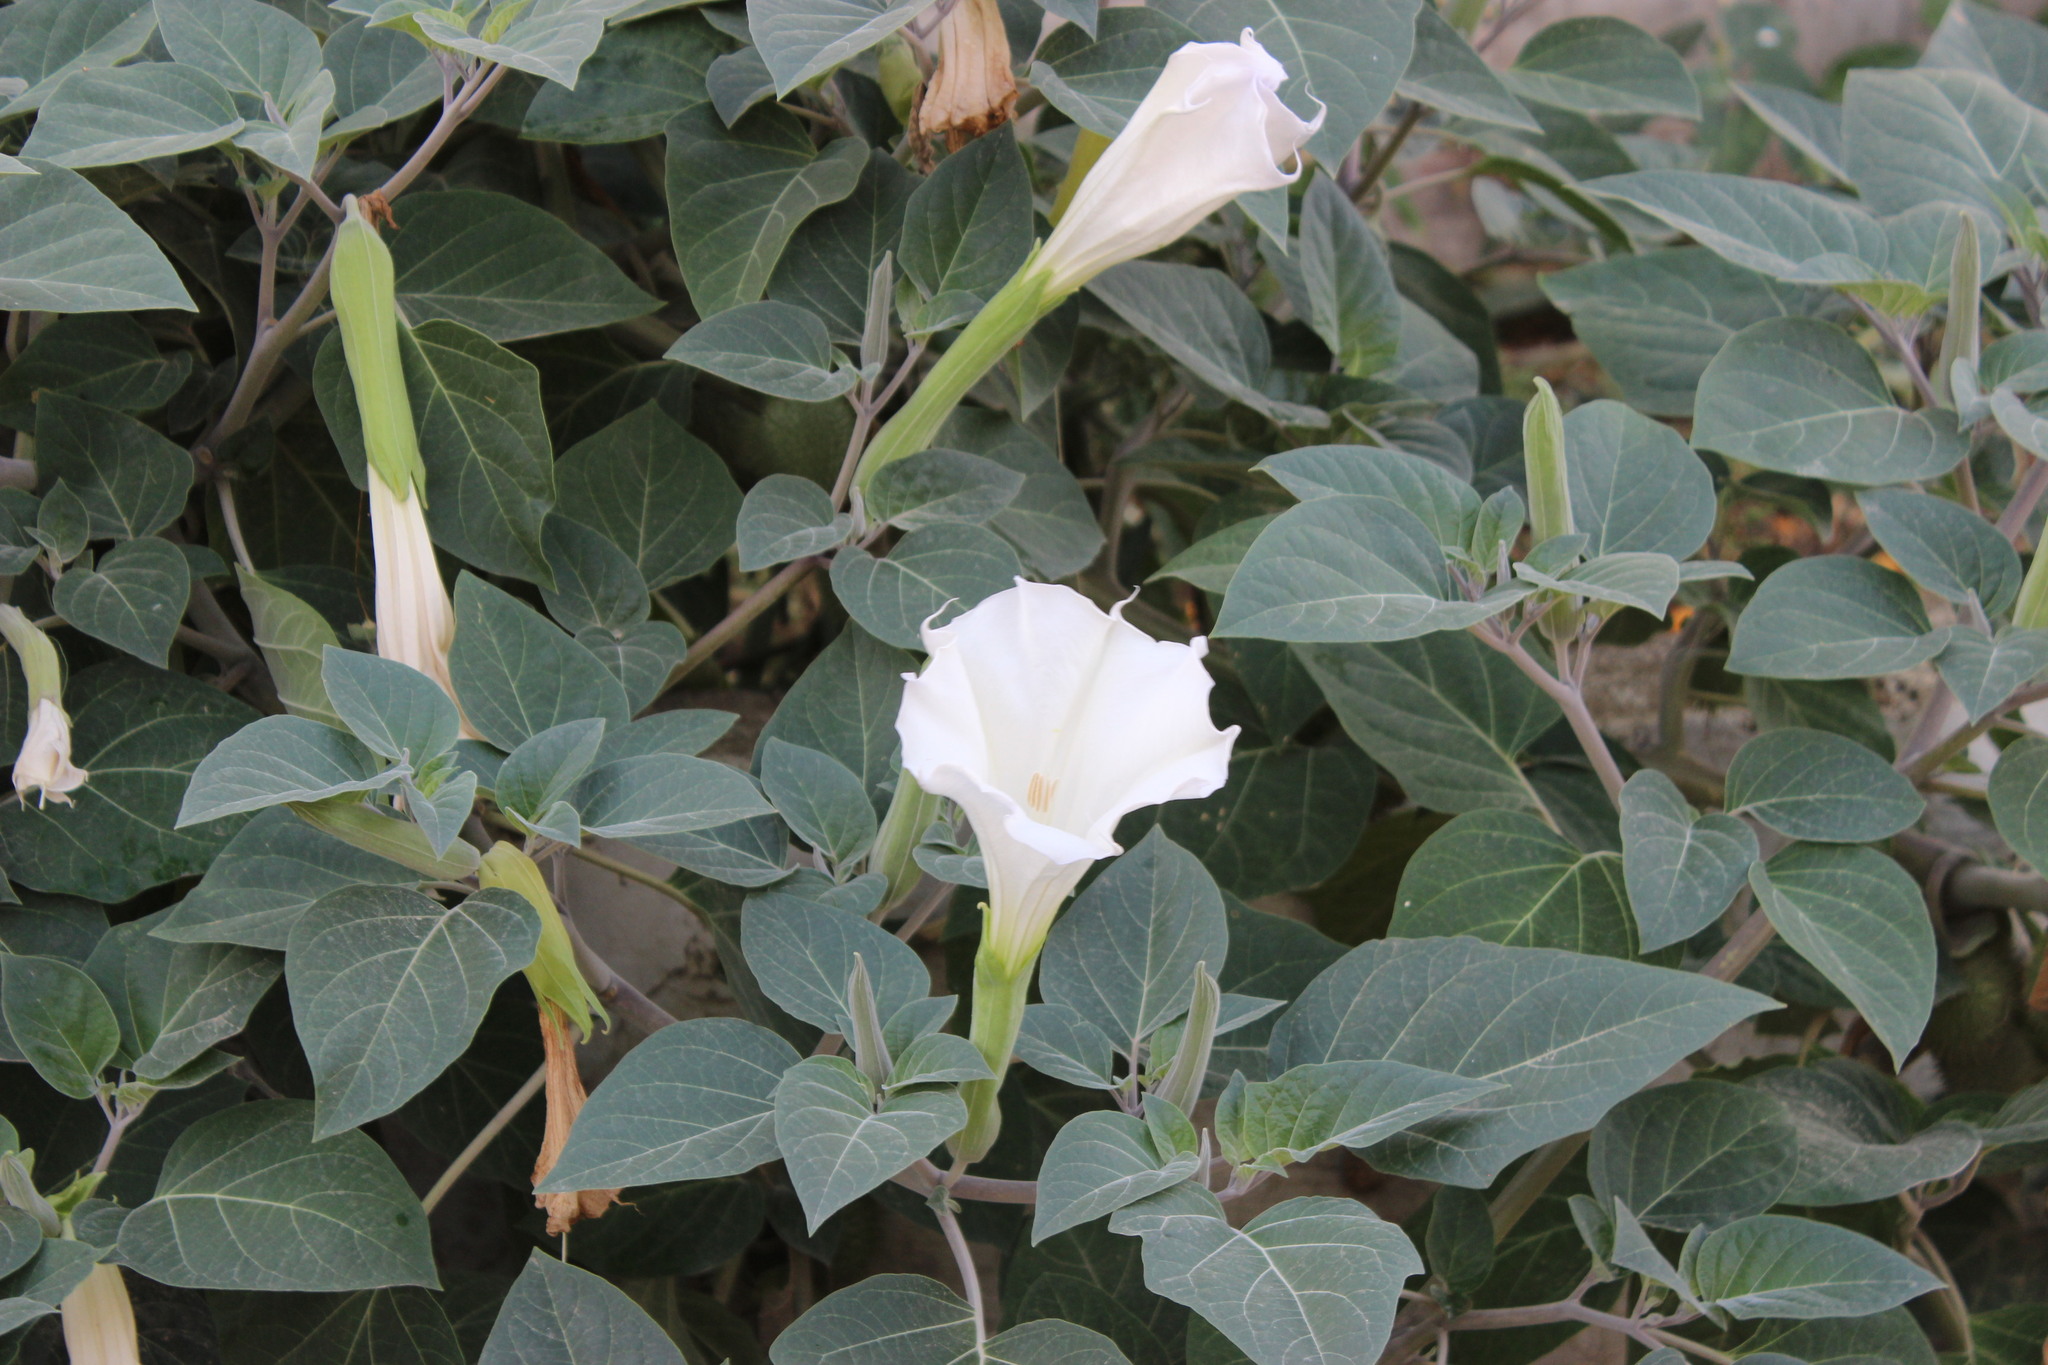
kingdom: Plantae
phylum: Tracheophyta
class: Magnoliopsida
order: Solanales
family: Solanaceae
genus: Datura
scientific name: Datura innoxia
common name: Downy thorn-apple
